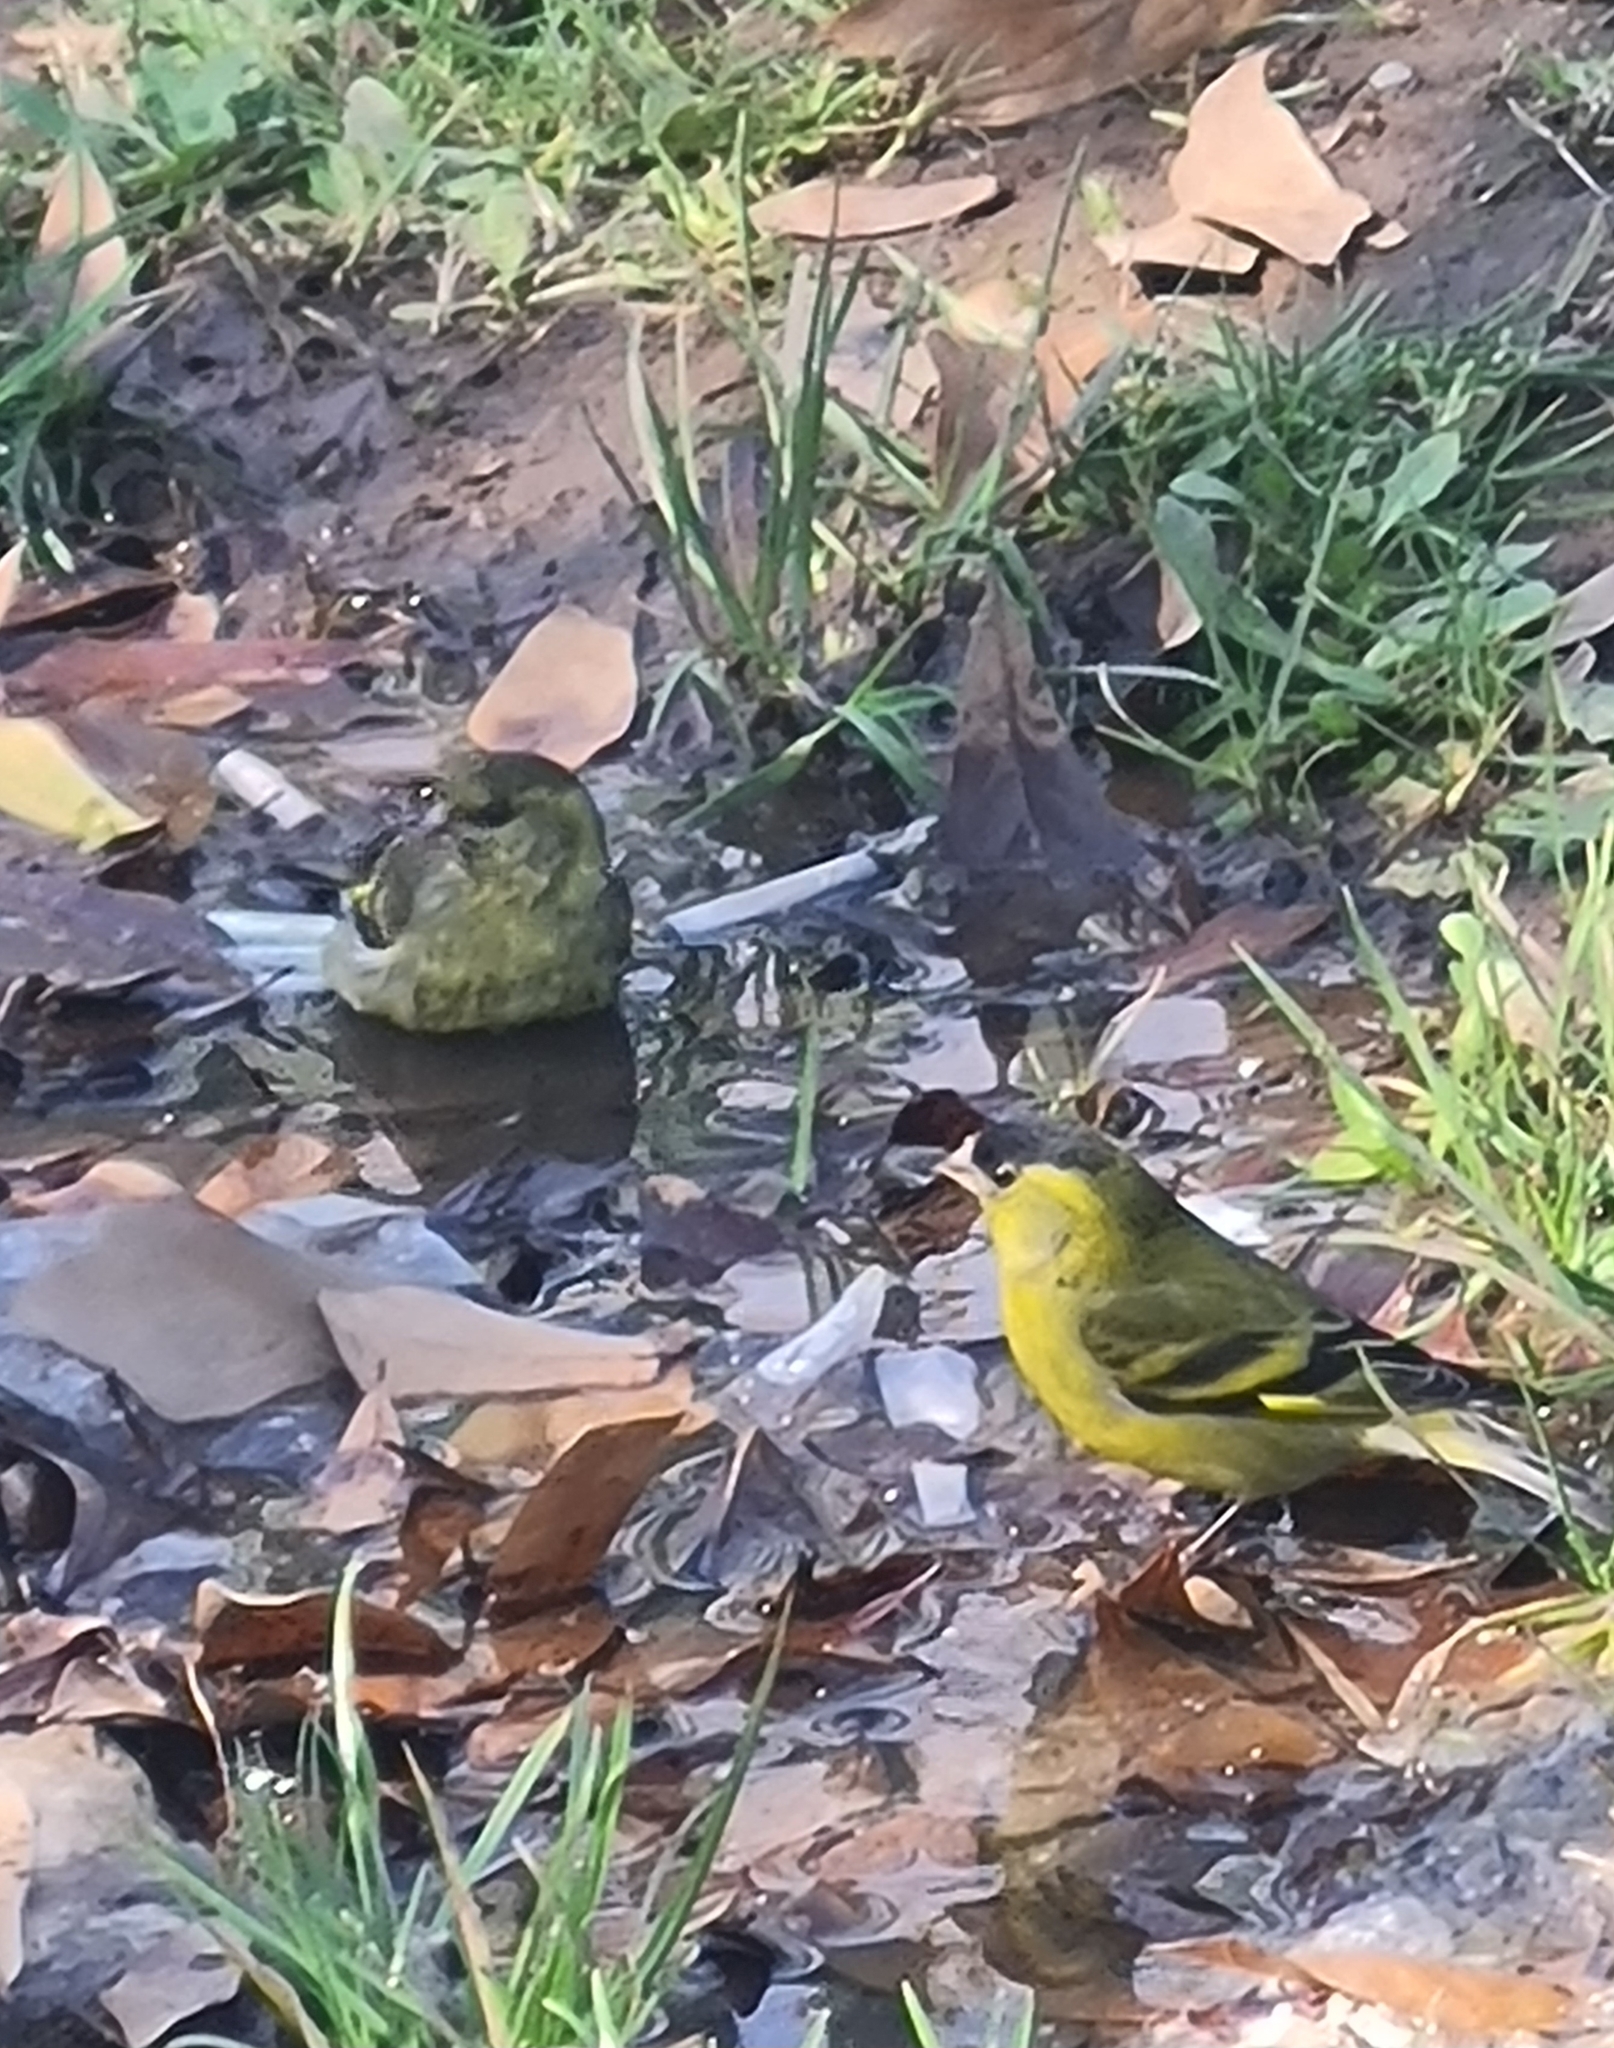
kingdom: Animalia
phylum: Chordata
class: Aves
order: Passeriformes
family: Fringillidae
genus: Spinus
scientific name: Spinus barbatus
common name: Black-chinned siskin
